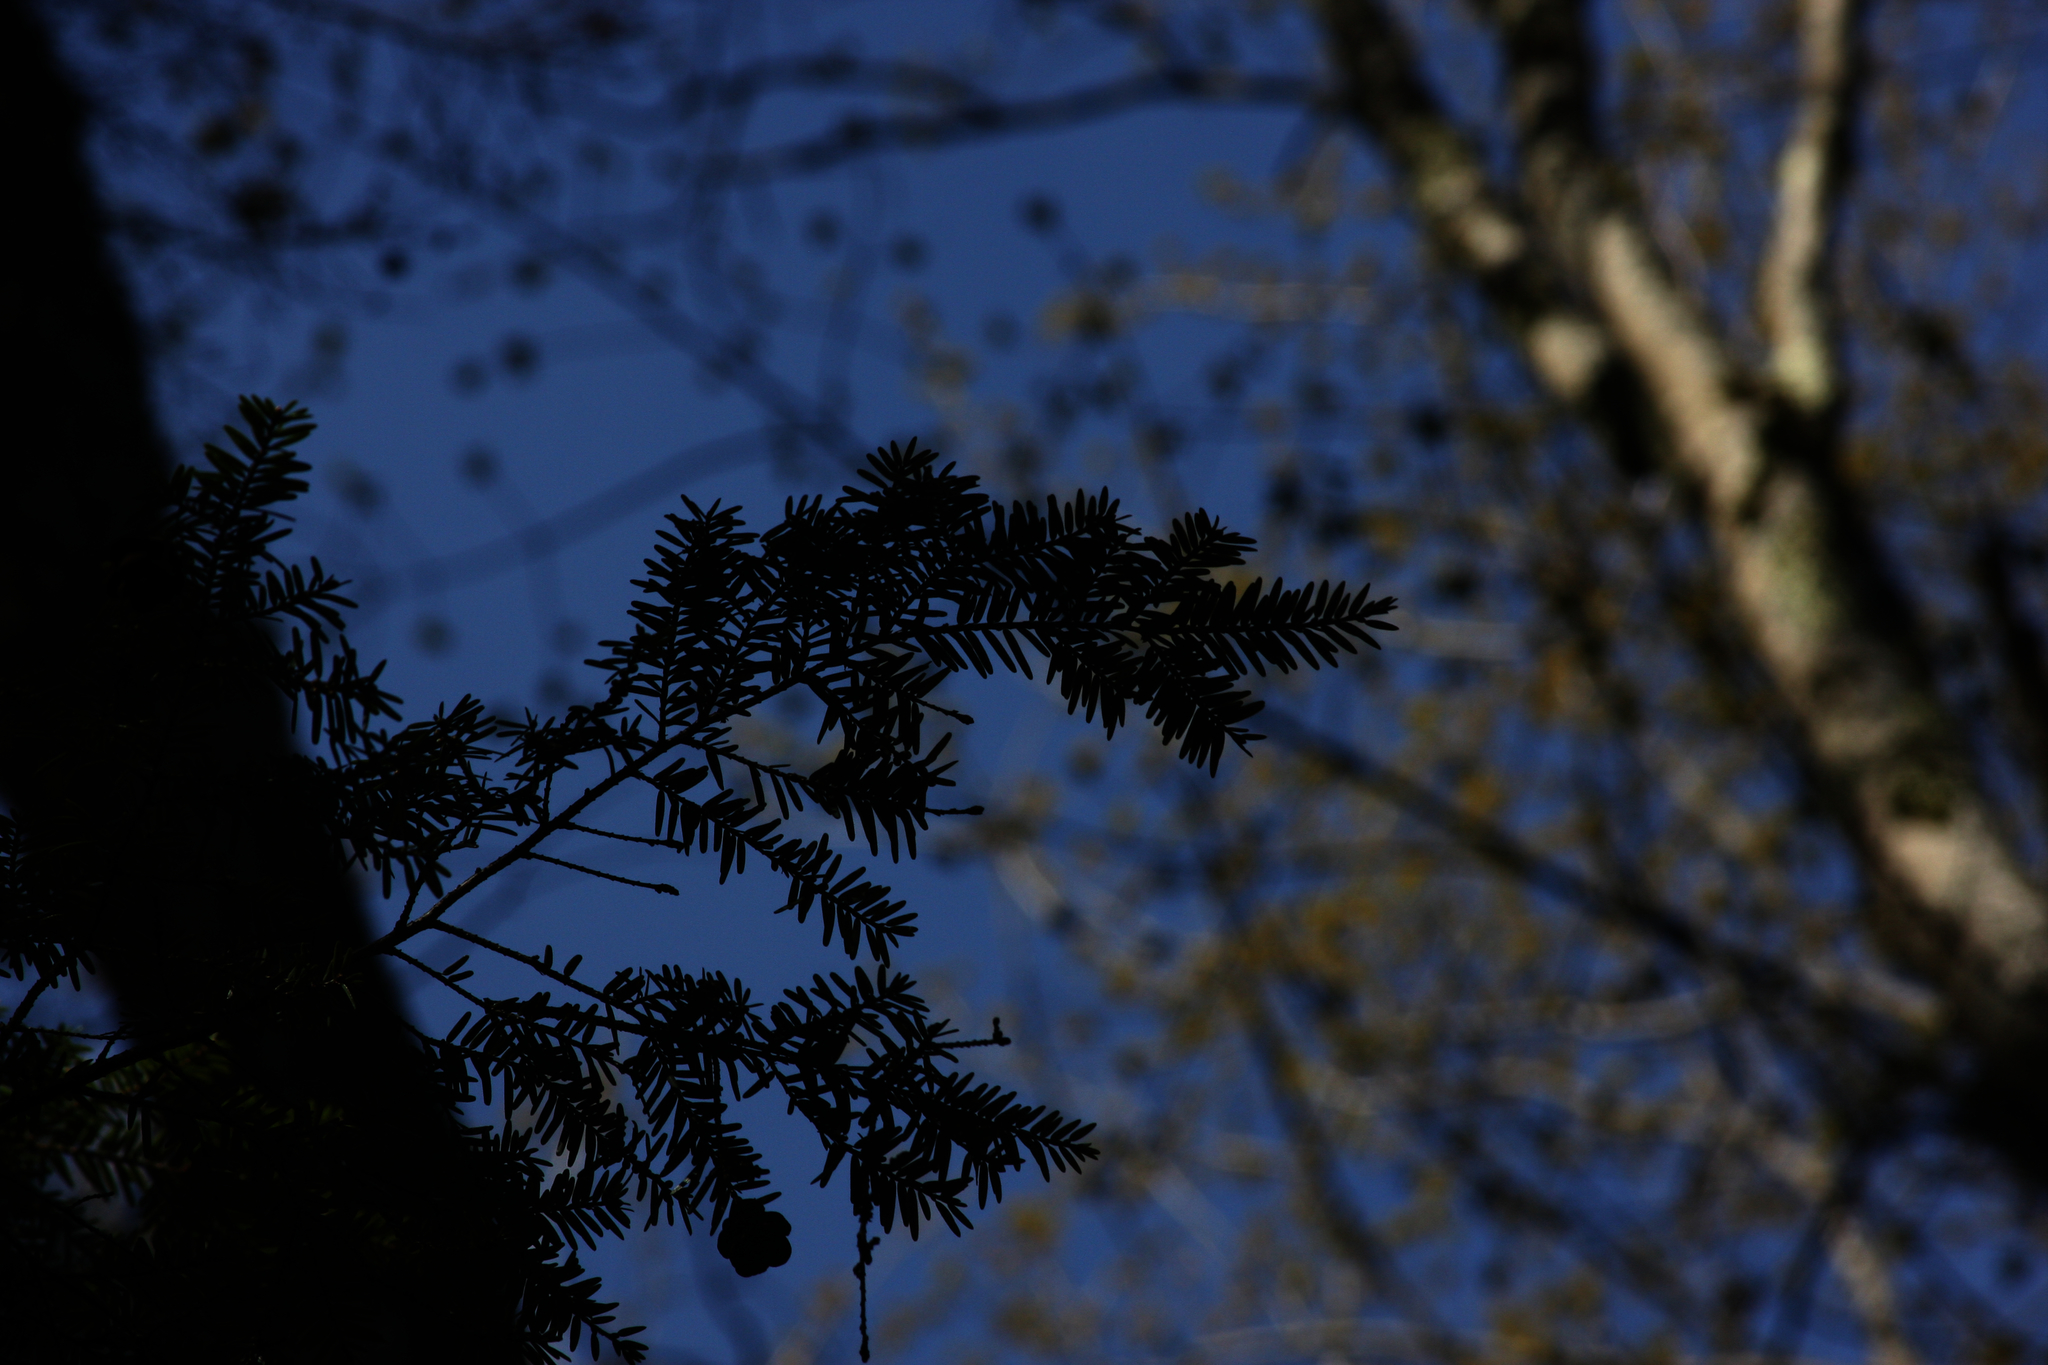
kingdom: Plantae
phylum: Tracheophyta
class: Pinopsida
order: Pinales
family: Pinaceae
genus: Tsuga
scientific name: Tsuga canadensis
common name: Eastern hemlock
